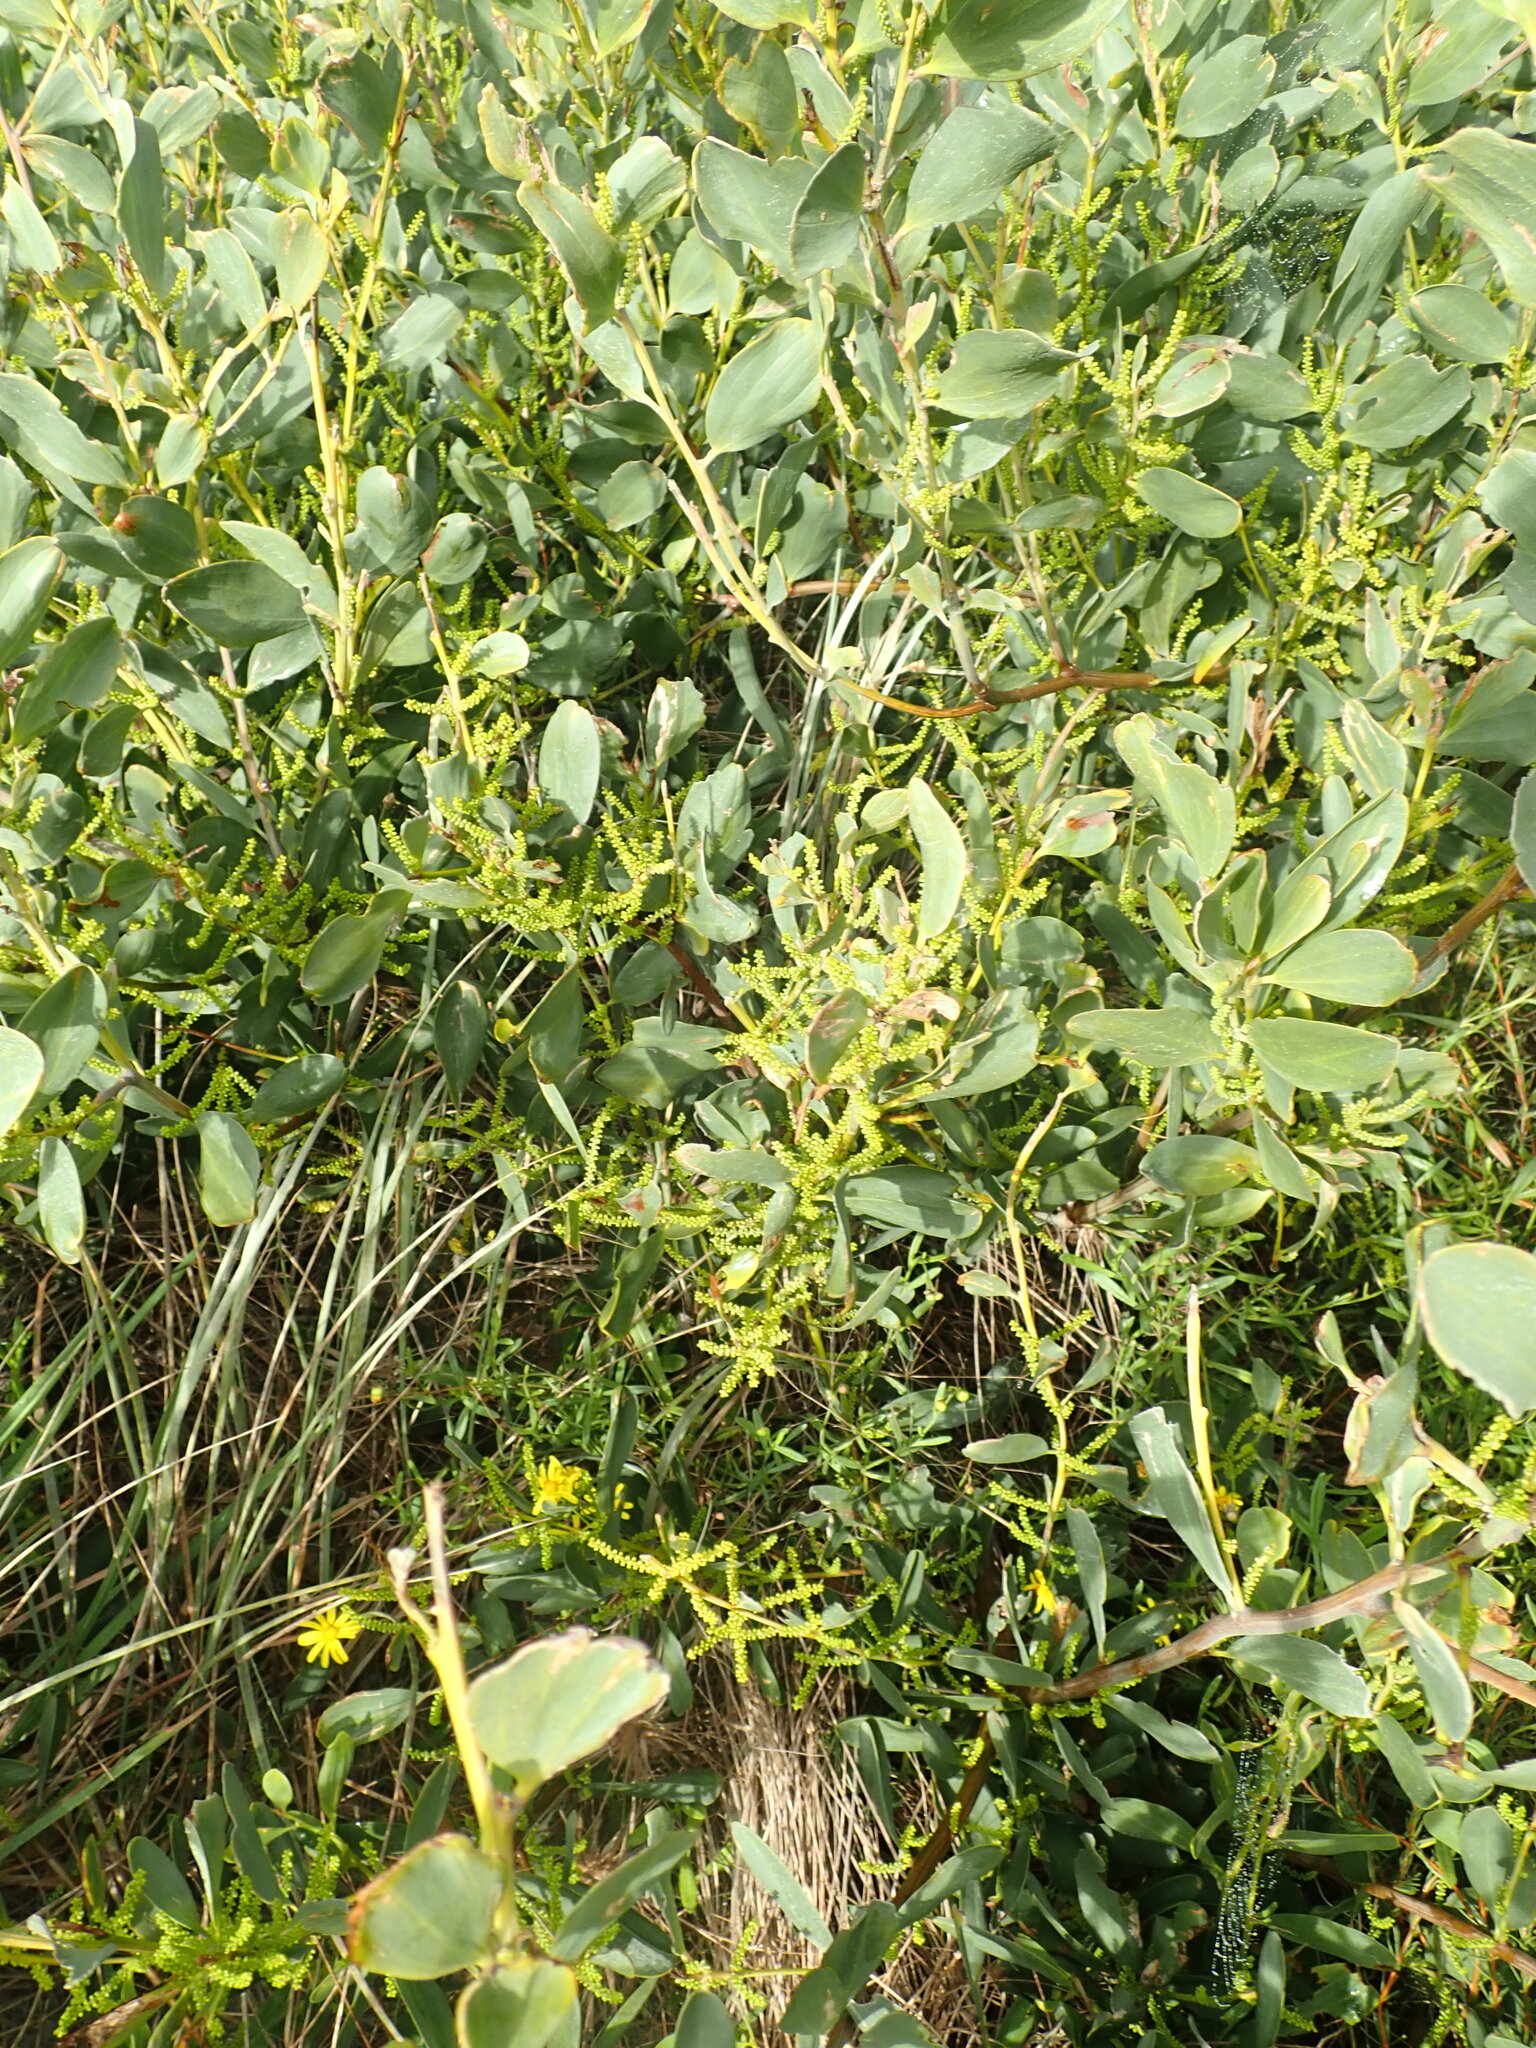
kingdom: Plantae
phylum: Tracheophyta
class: Magnoliopsida
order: Fabales
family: Fabaceae
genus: Acacia
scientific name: Acacia longifolia
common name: Sydney golden wattle
